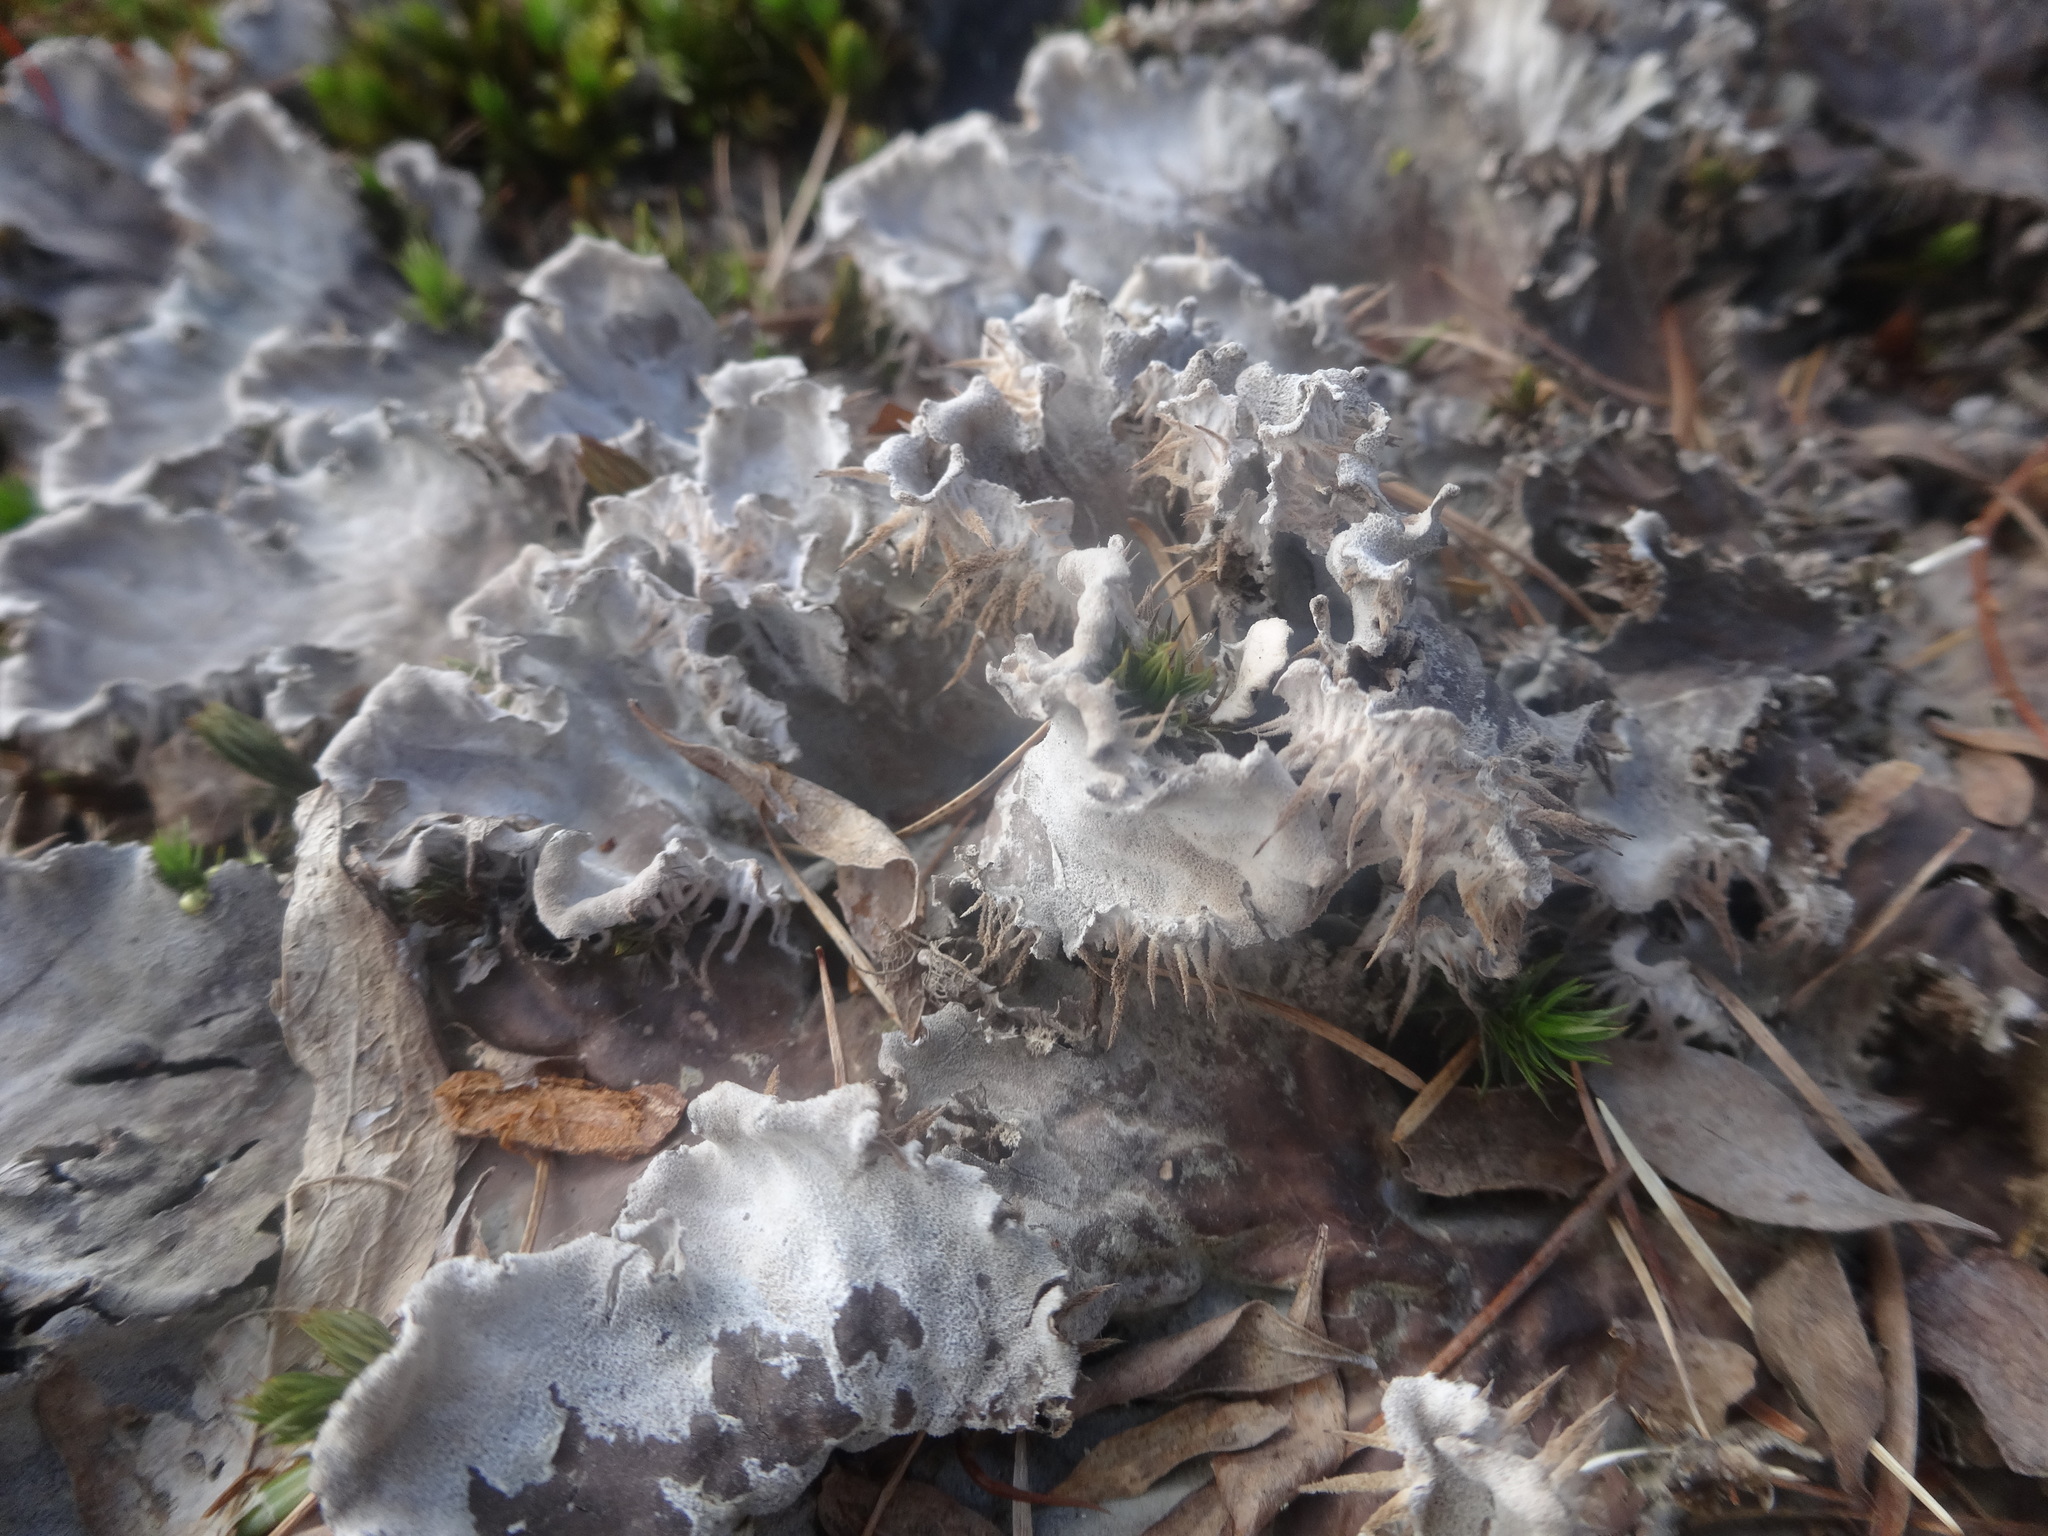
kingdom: Fungi
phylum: Ascomycota
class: Lecanoromycetes
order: Peltigerales
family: Peltigeraceae
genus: Peltigera
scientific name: Peltigera membranacea
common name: Membranous pelt lichen
